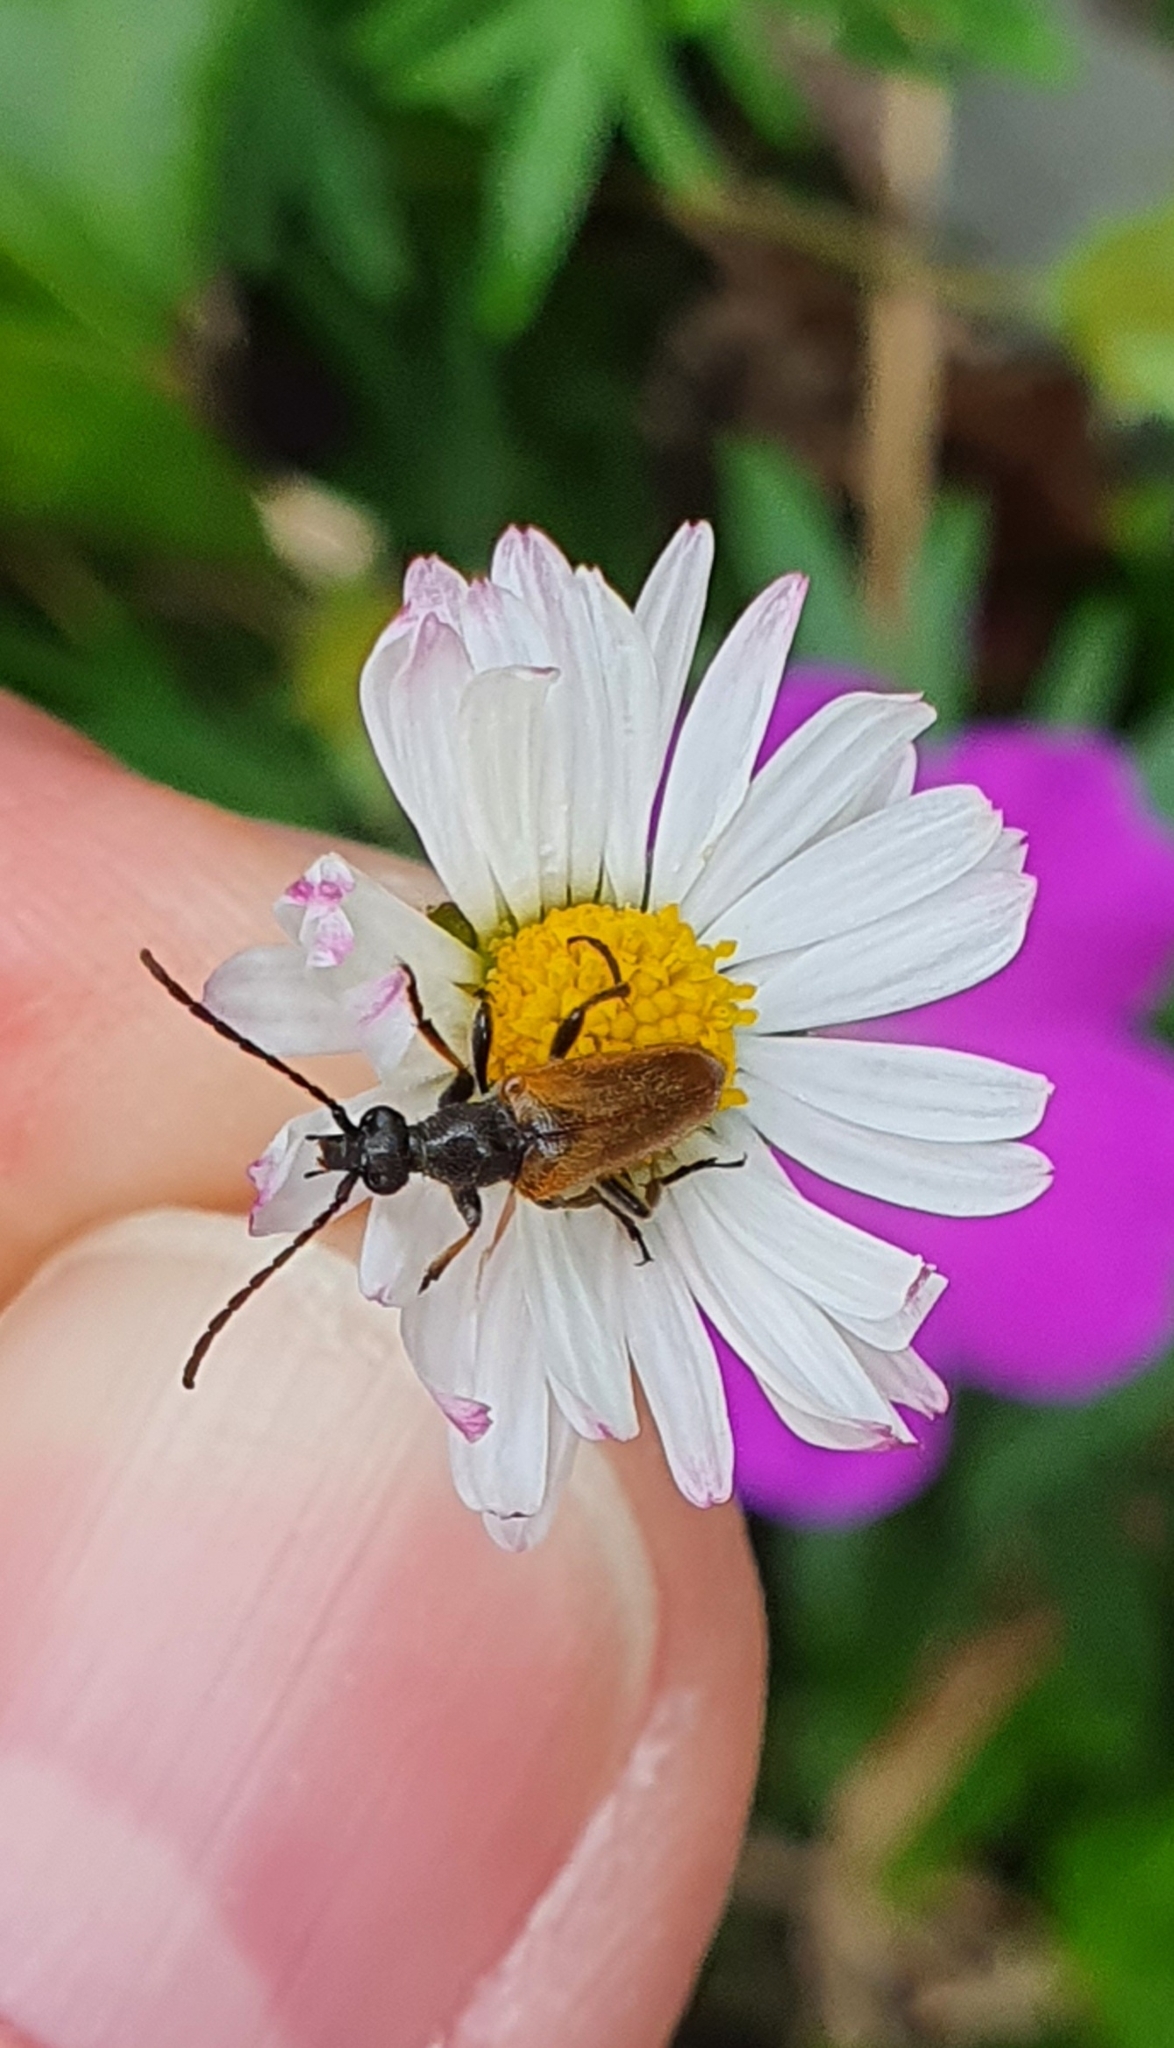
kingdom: Animalia
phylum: Arthropoda
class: Insecta
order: Coleoptera
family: Cerambycidae
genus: Pseudovadonia
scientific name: Pseudovadonia livida
